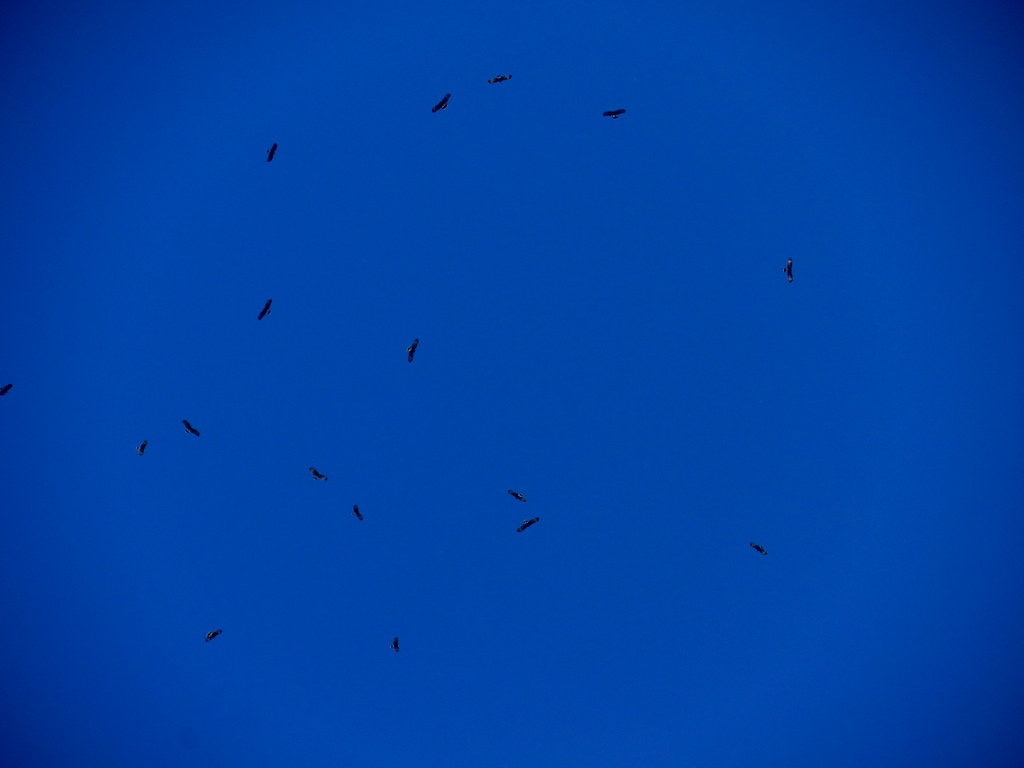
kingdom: Animalia
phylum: Chordata
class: Aves
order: Accipitriformes
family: Accipitridae
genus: Rostrhamus
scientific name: Rostrhamus sociabilis
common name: Snail kite
